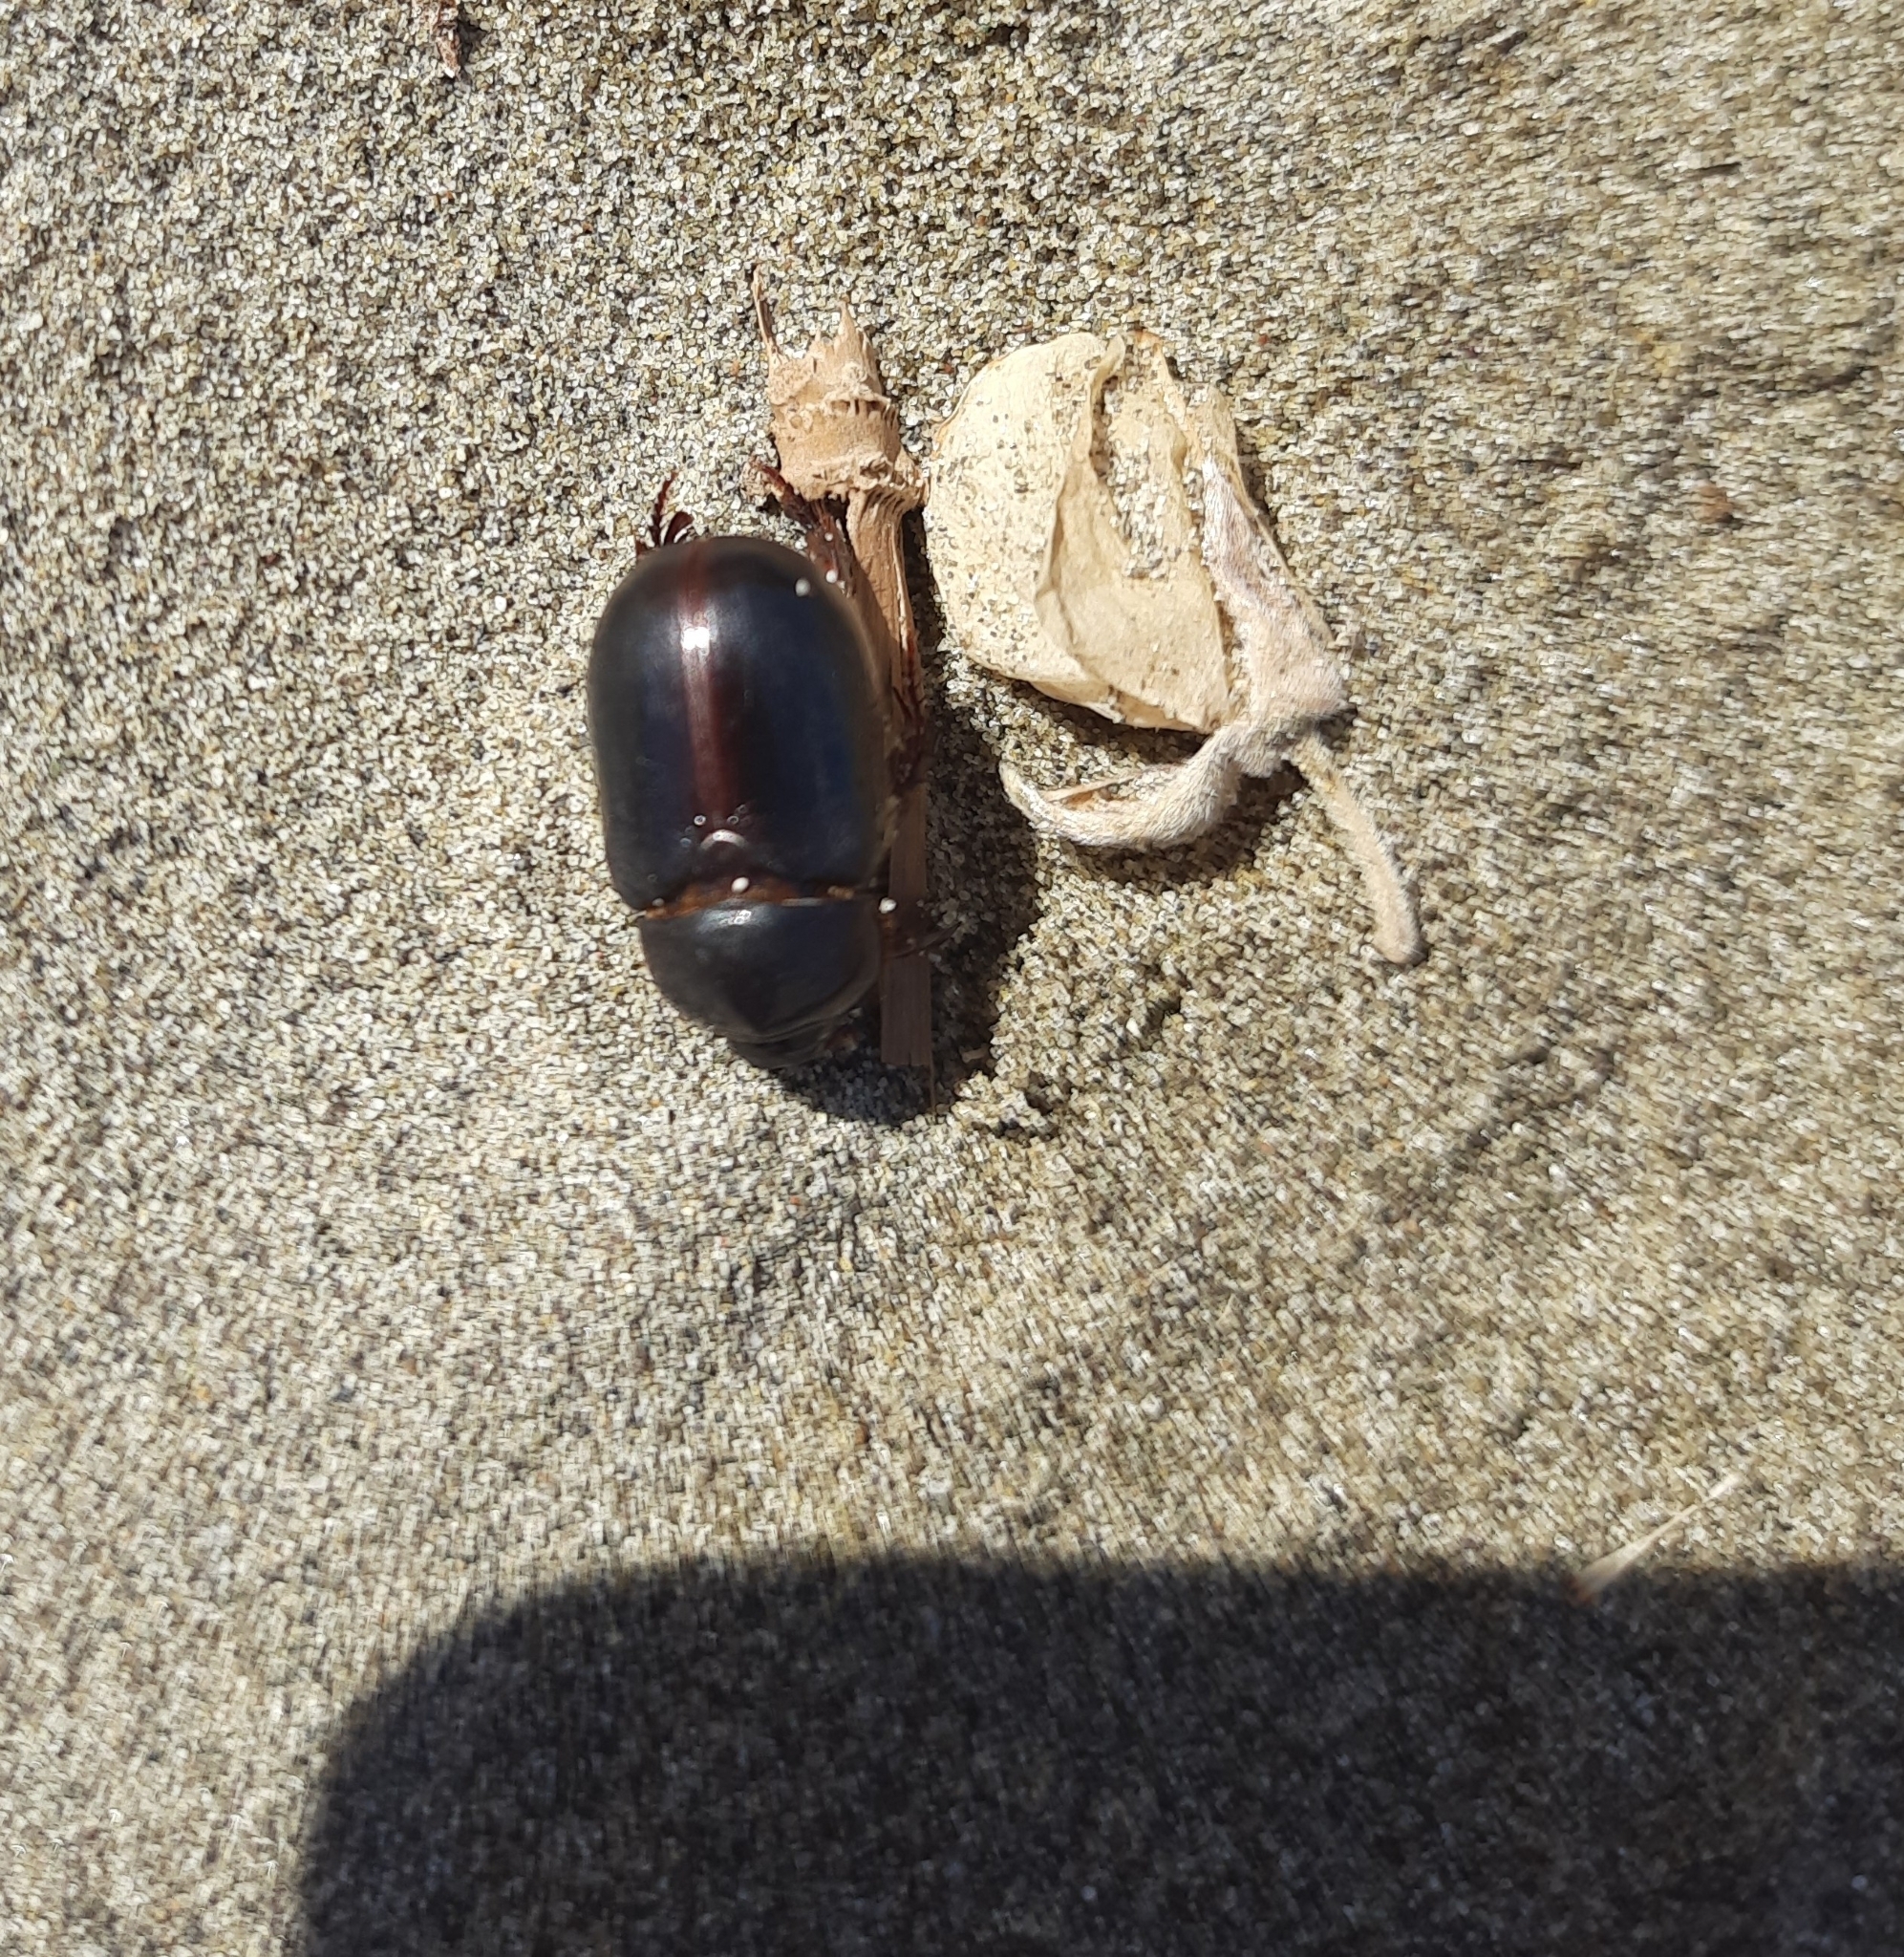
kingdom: Animalia
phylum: Arthropoda
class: Insecta
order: Coleoptera
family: Scarabaeidae
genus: Pericoptus
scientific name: Pericoptus truncatus
